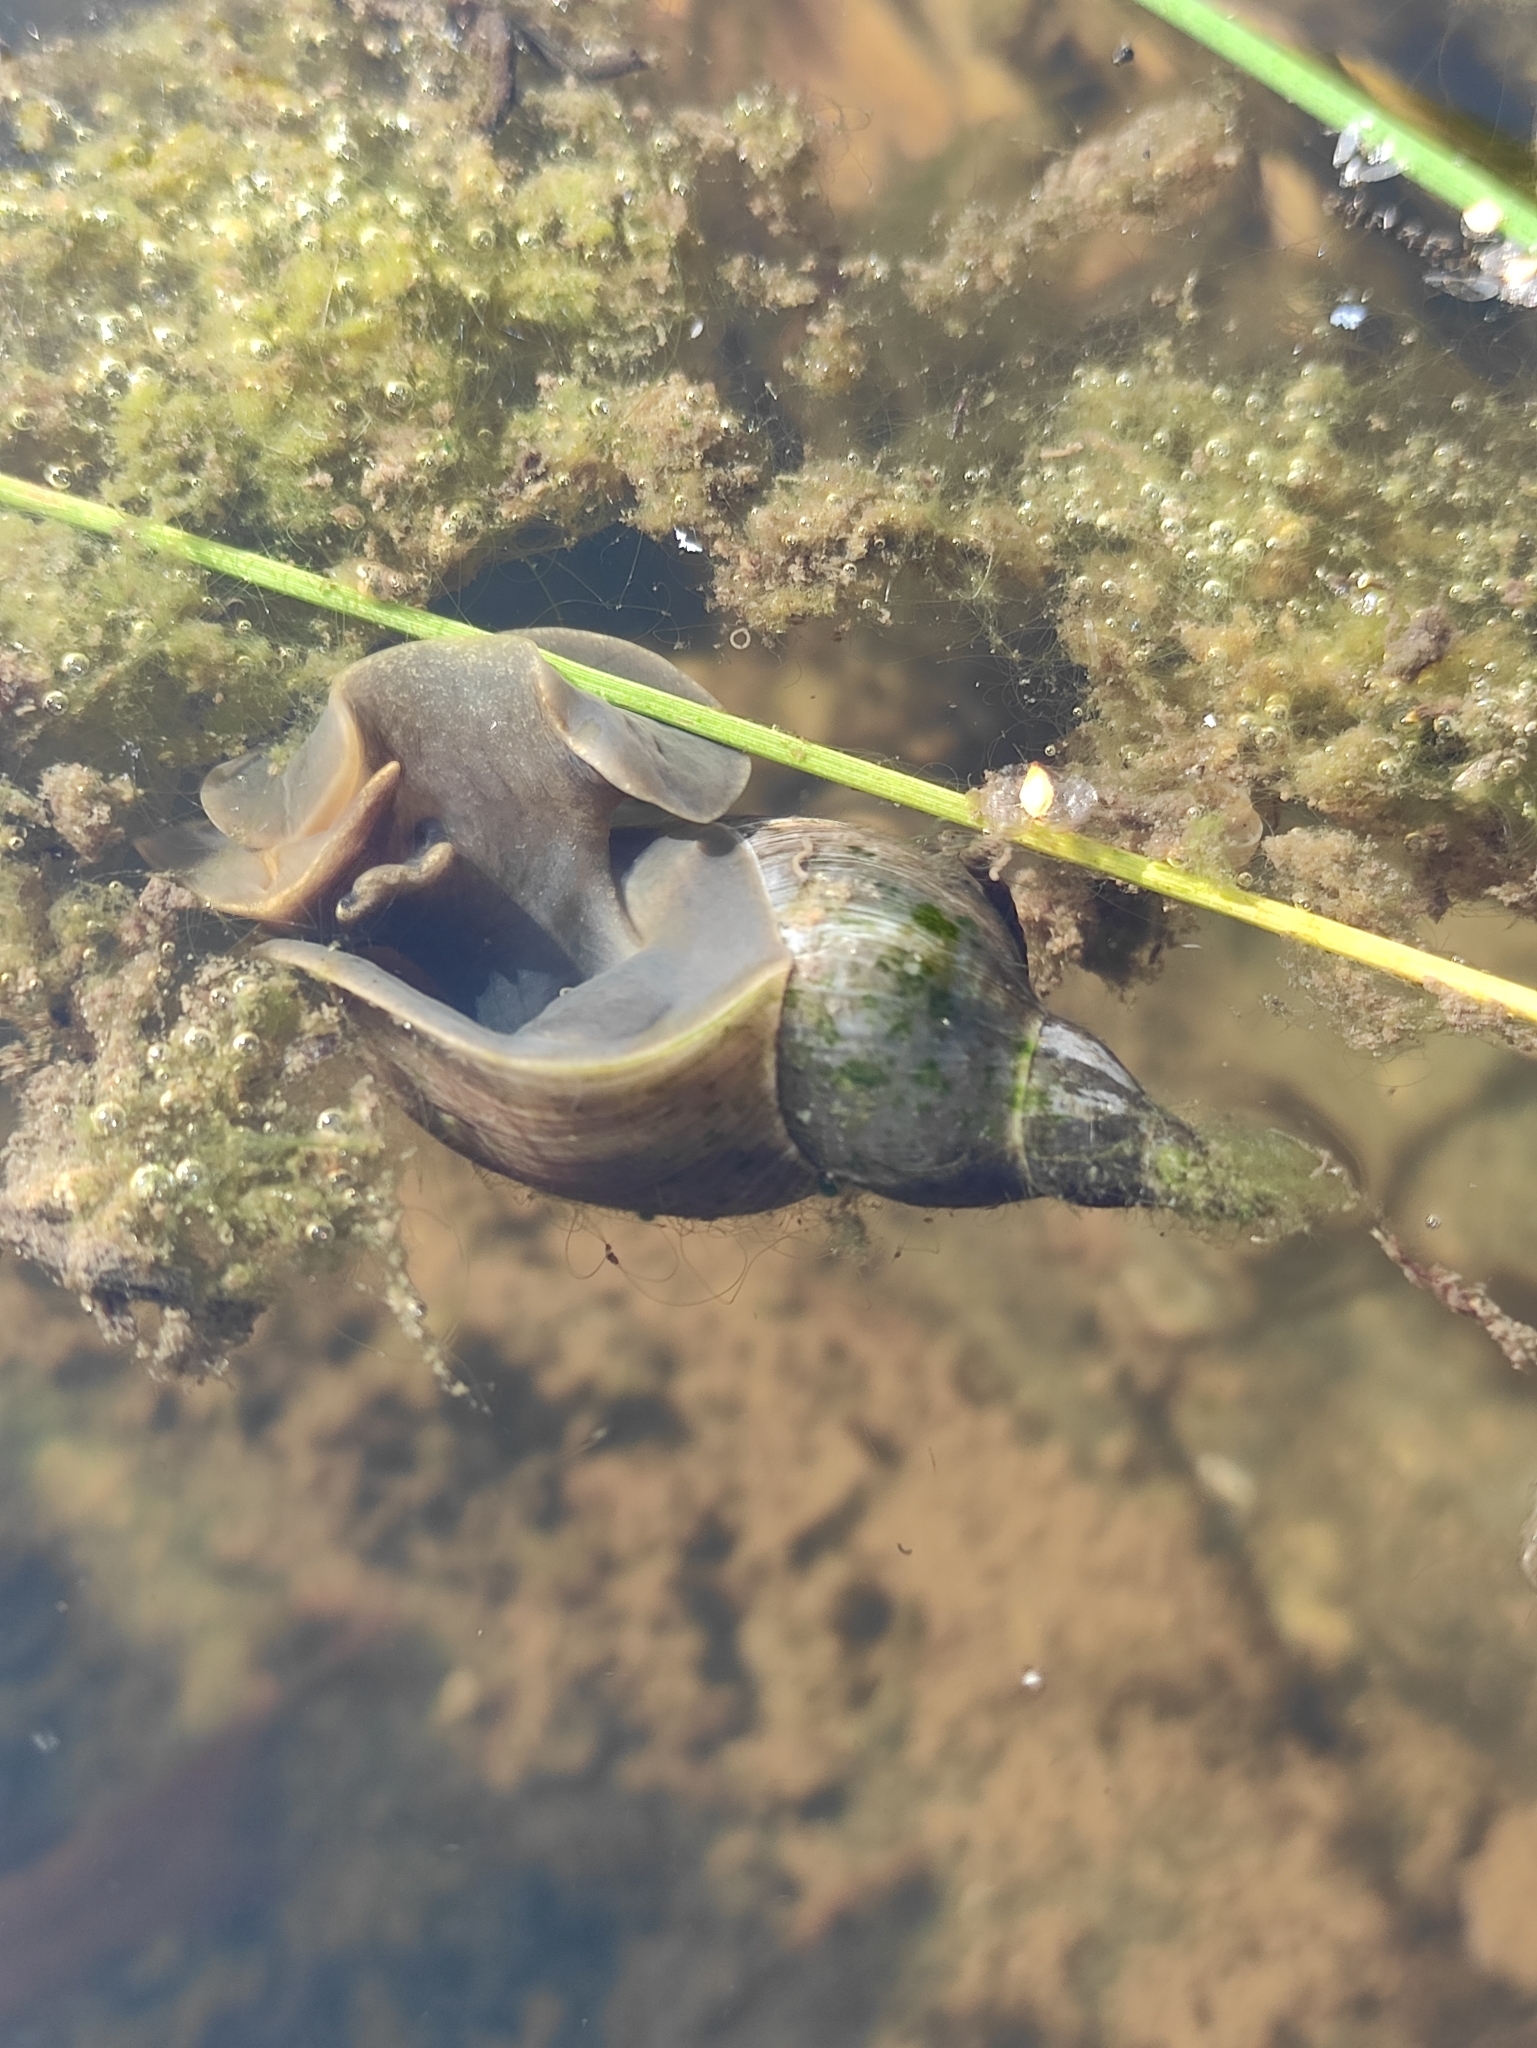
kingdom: Animalia
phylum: Mollusca
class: Gastropoda
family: Lymnaeidae
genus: Lymnaea
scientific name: Lymnaea stagnalis
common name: Great pond snail
